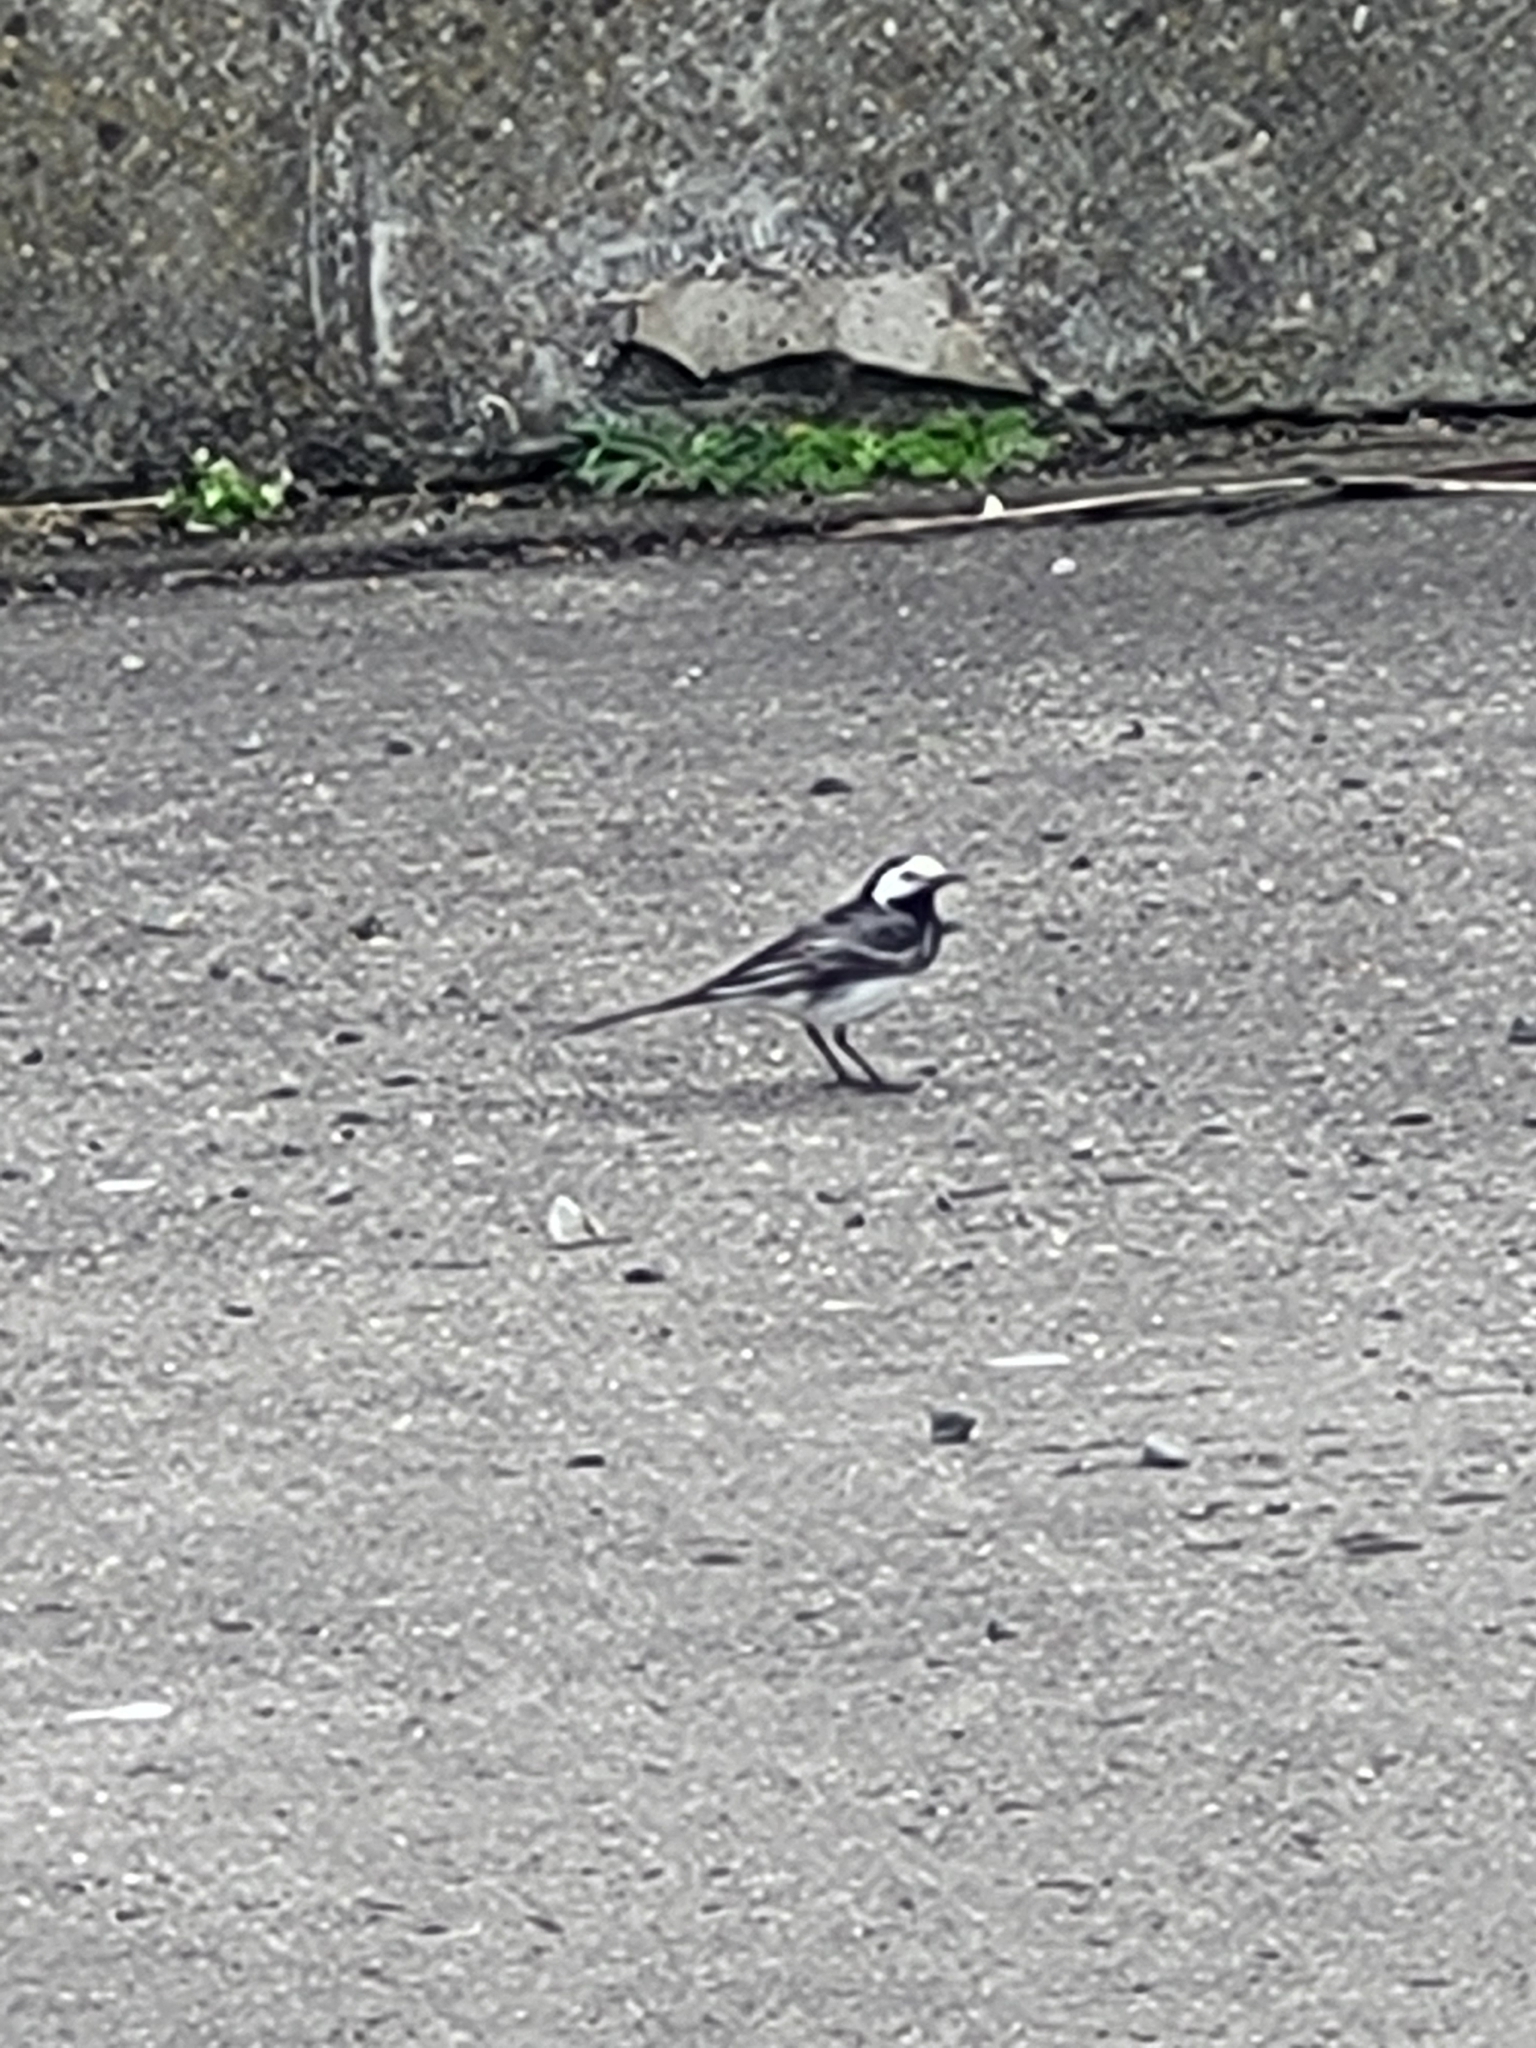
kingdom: Animalia
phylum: Chordata
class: Aves
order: Passeriformes
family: Motacillidae
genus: Motacilla
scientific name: Motacilla alba
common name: White wagtail
